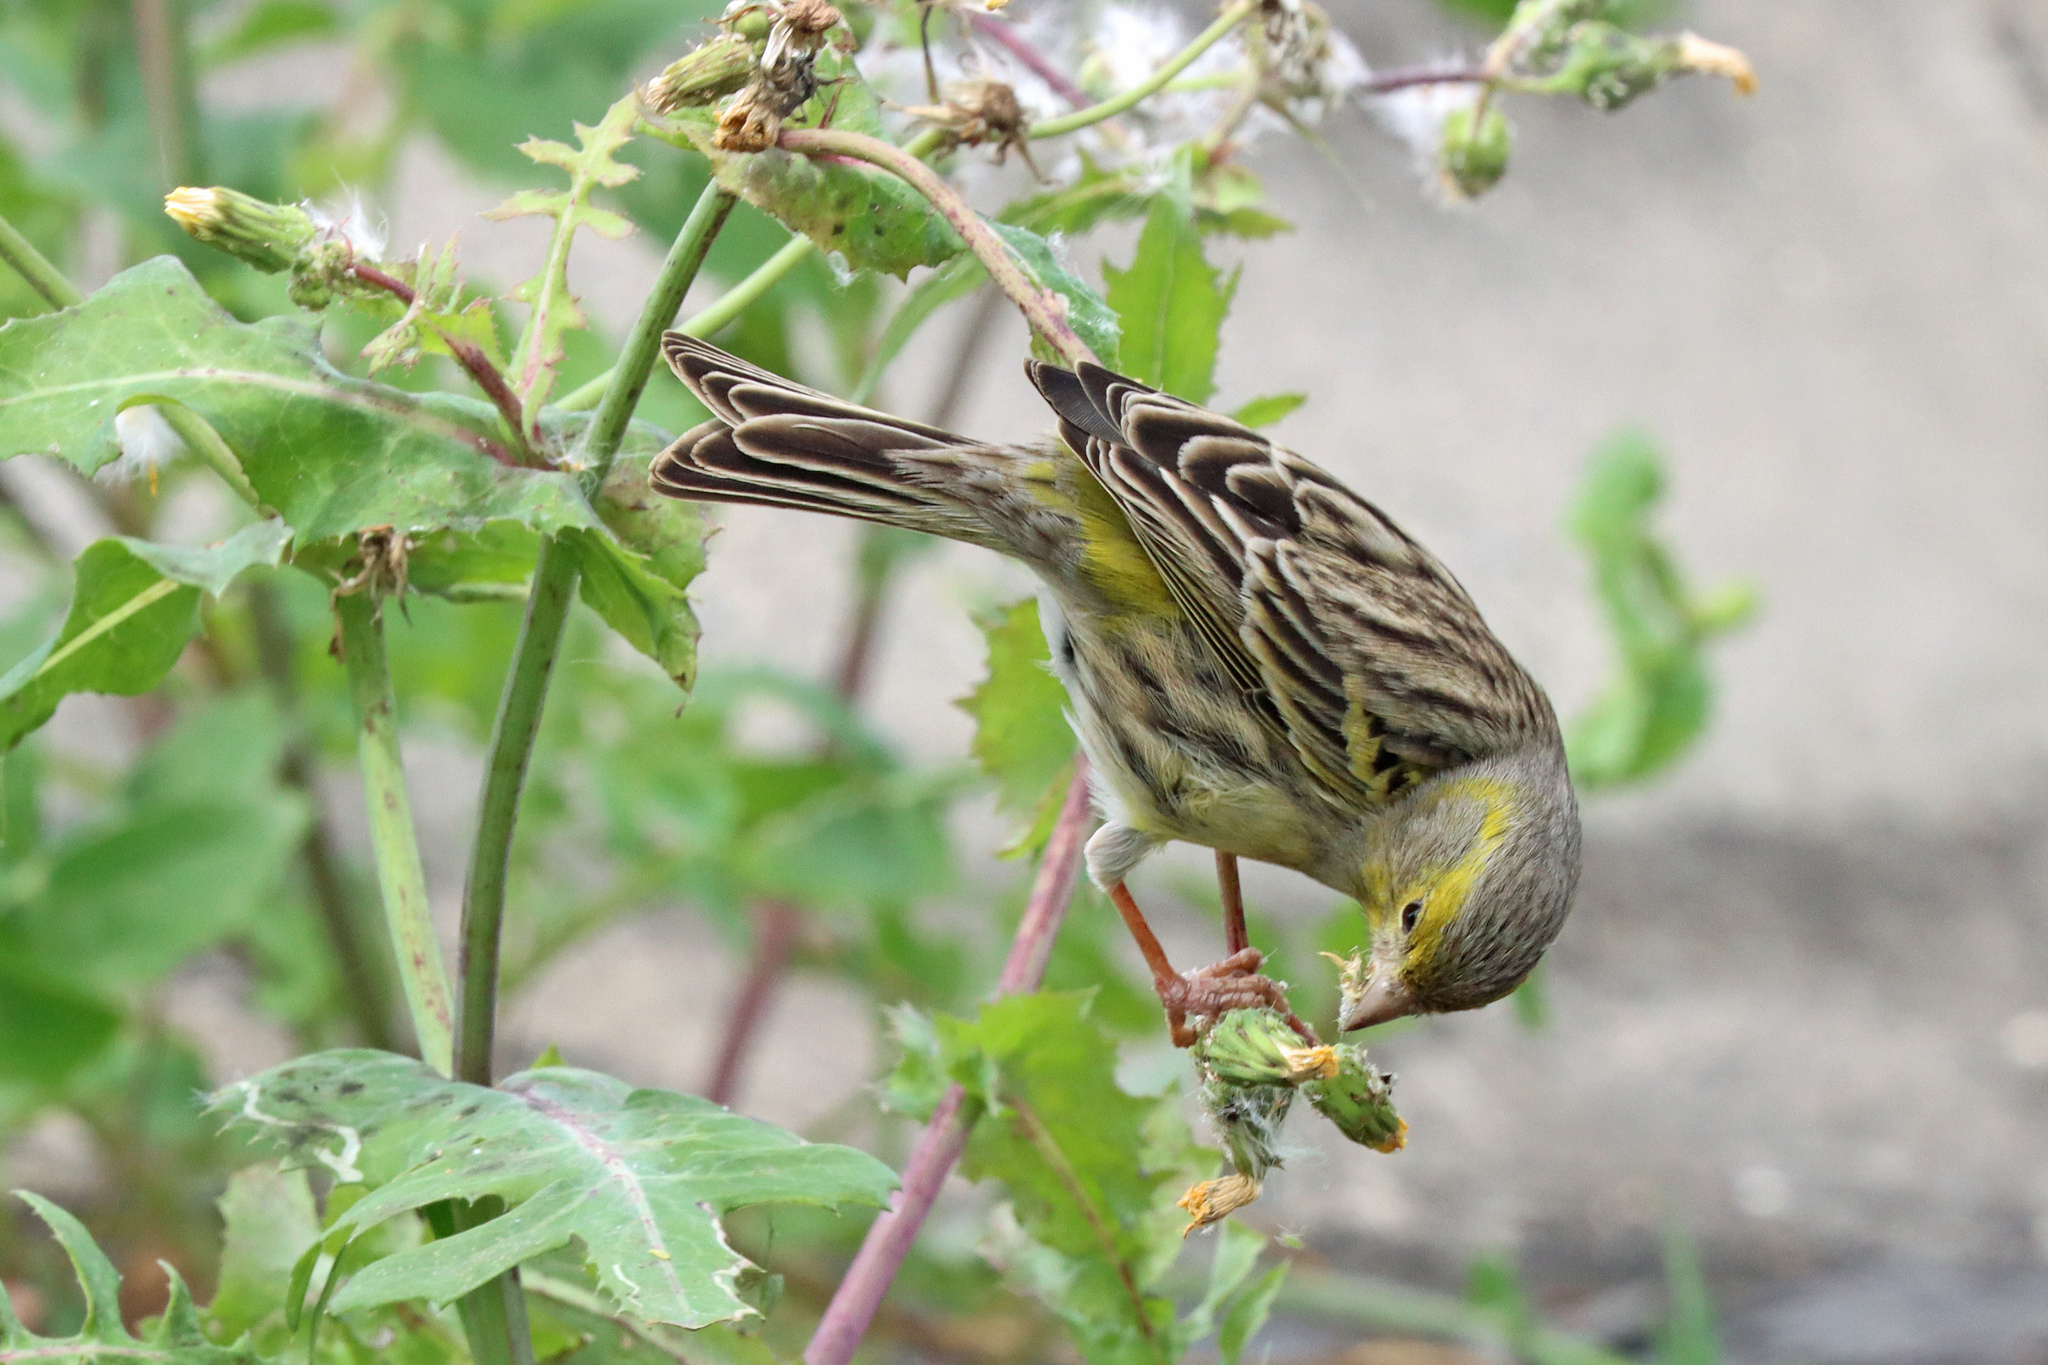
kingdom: Animalia
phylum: Chordata
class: Aves
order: Passeriformes
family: Fringillidae
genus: Serinus
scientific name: Serinus canaria
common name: Atlantic canary
